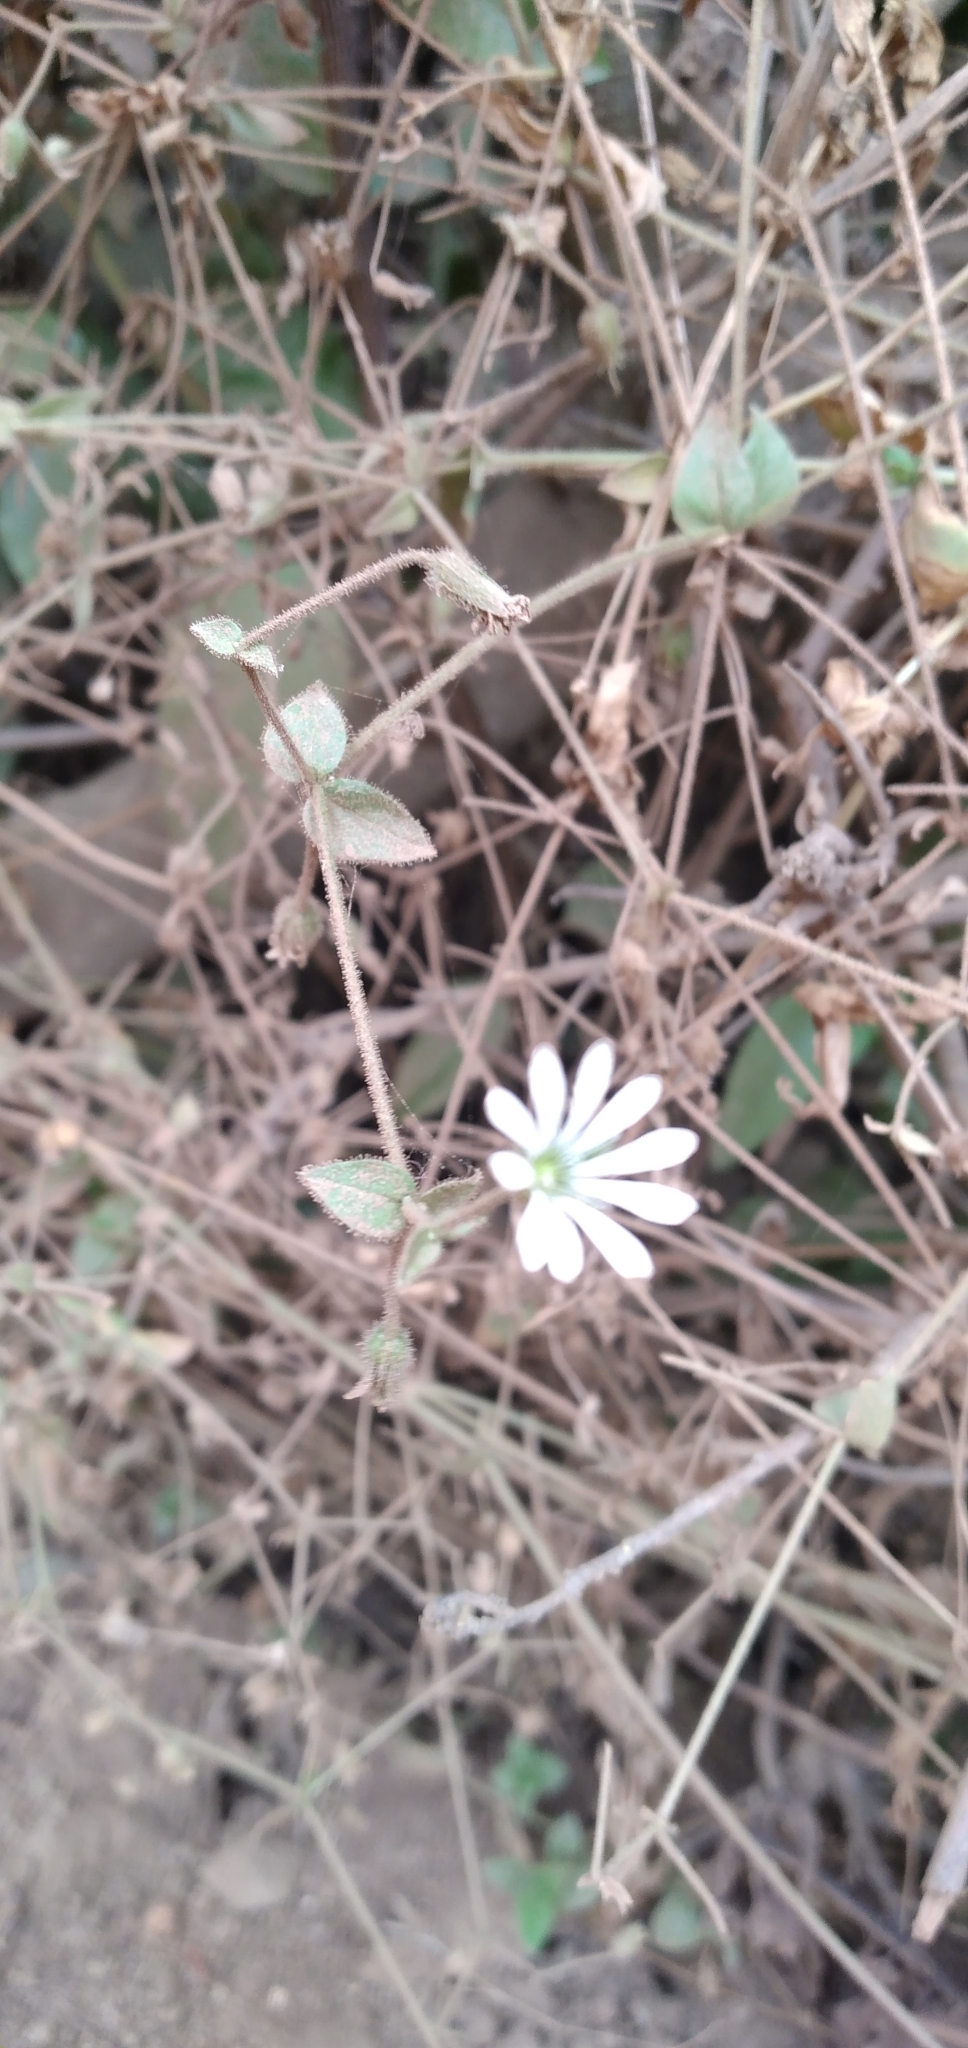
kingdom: Plantae
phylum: Tracheophyta
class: Magnoliopsida
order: Caryophyllales
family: Caryophyllaceae
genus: Stellaria
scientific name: Stellaria chilensis
